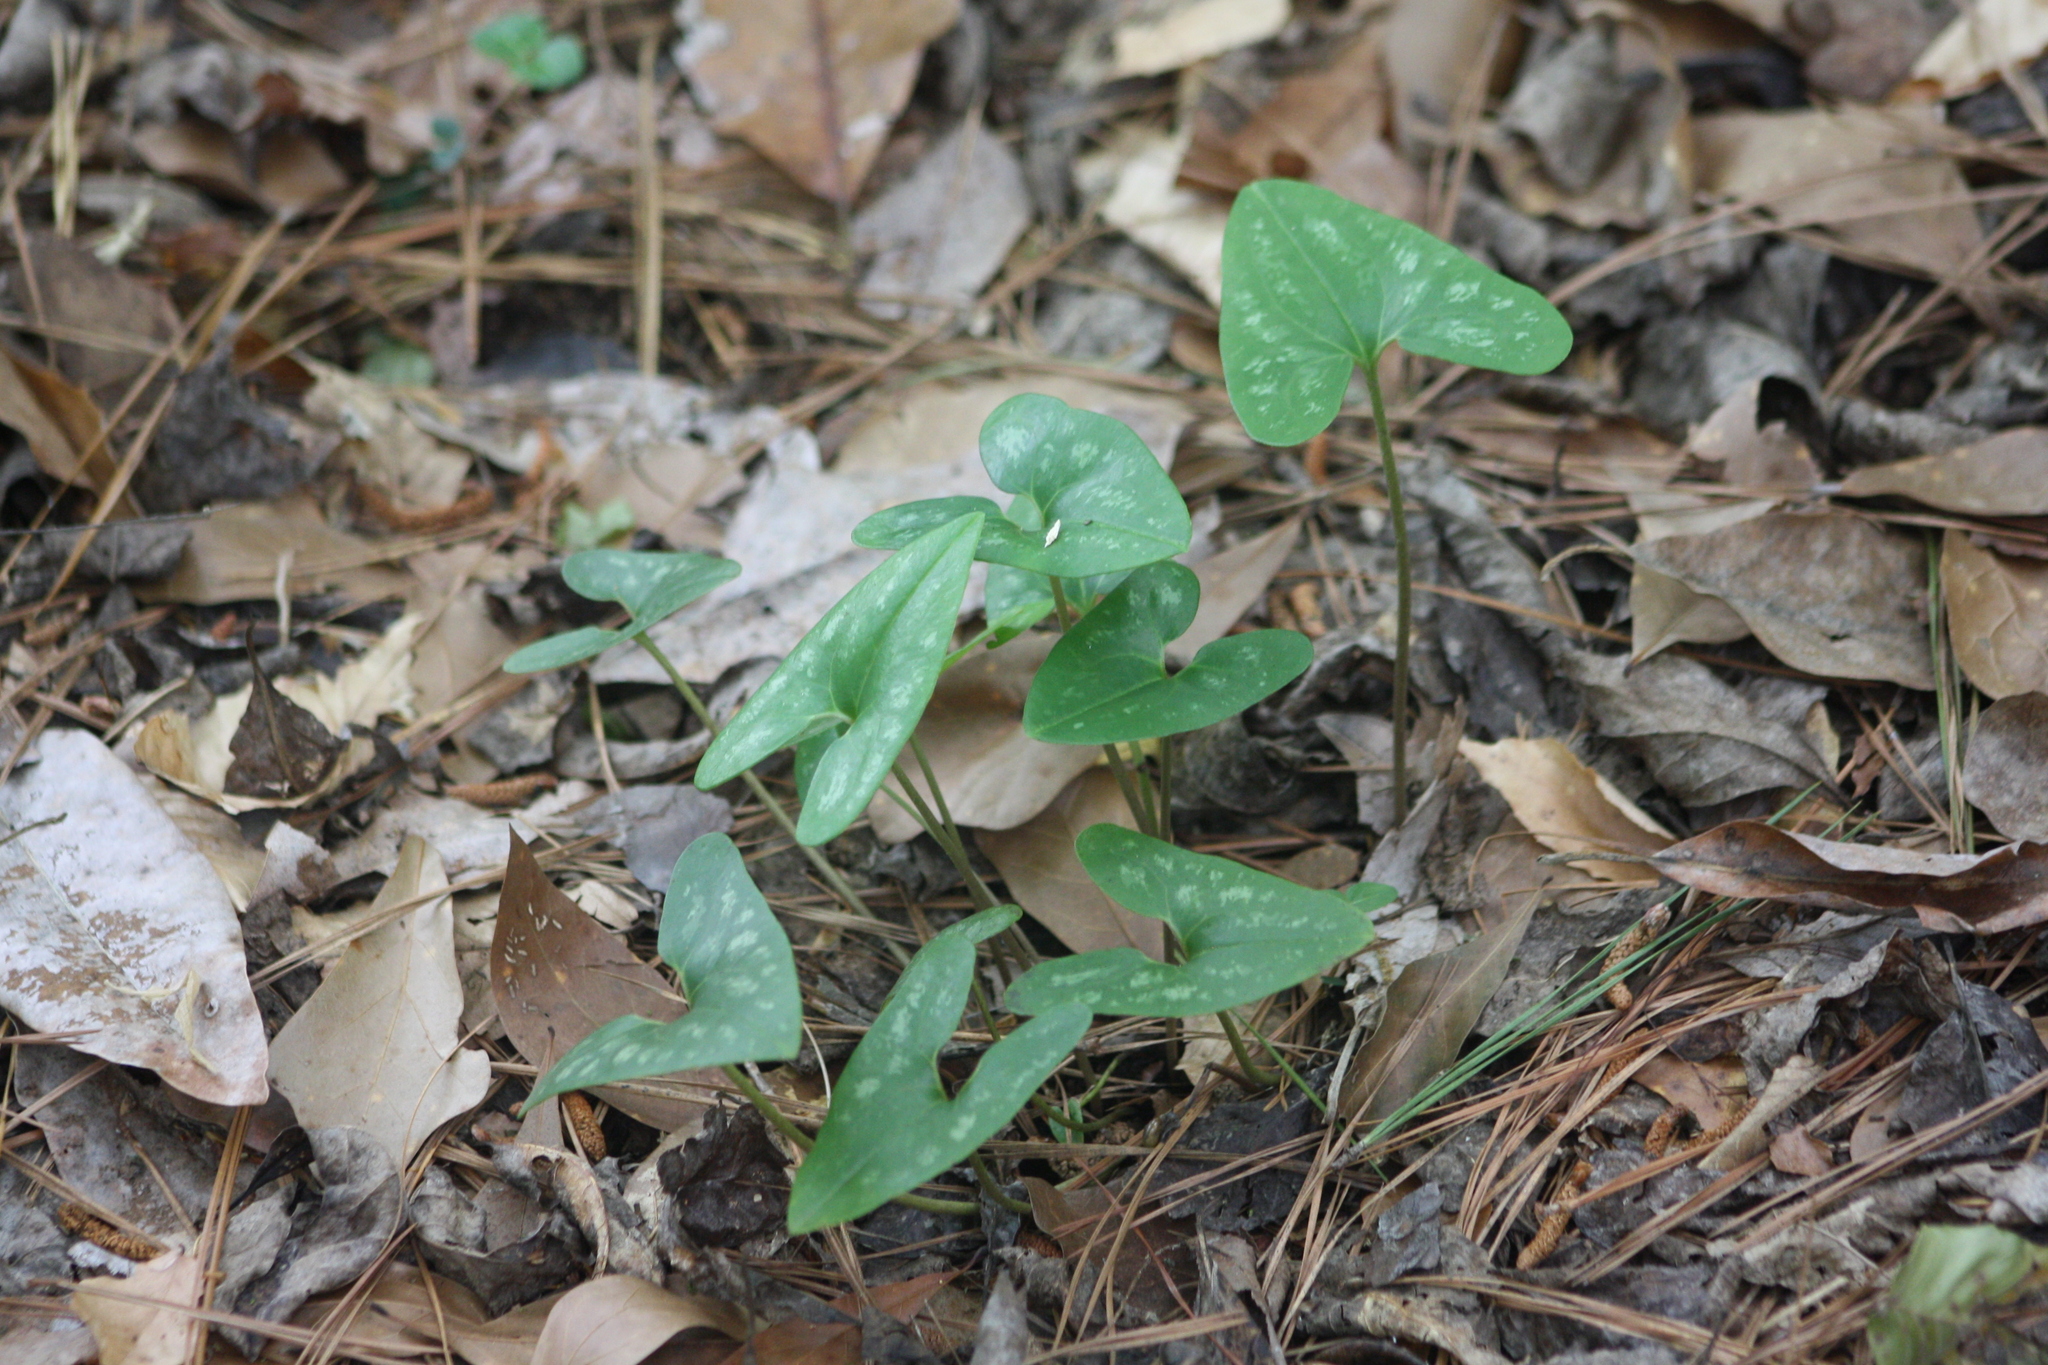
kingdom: Plantae
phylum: Tracheophyta
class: Magnoliopsida
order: Piperales
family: Aristolochiaceae
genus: Hexastylis
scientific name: Hexastylis arifolia
